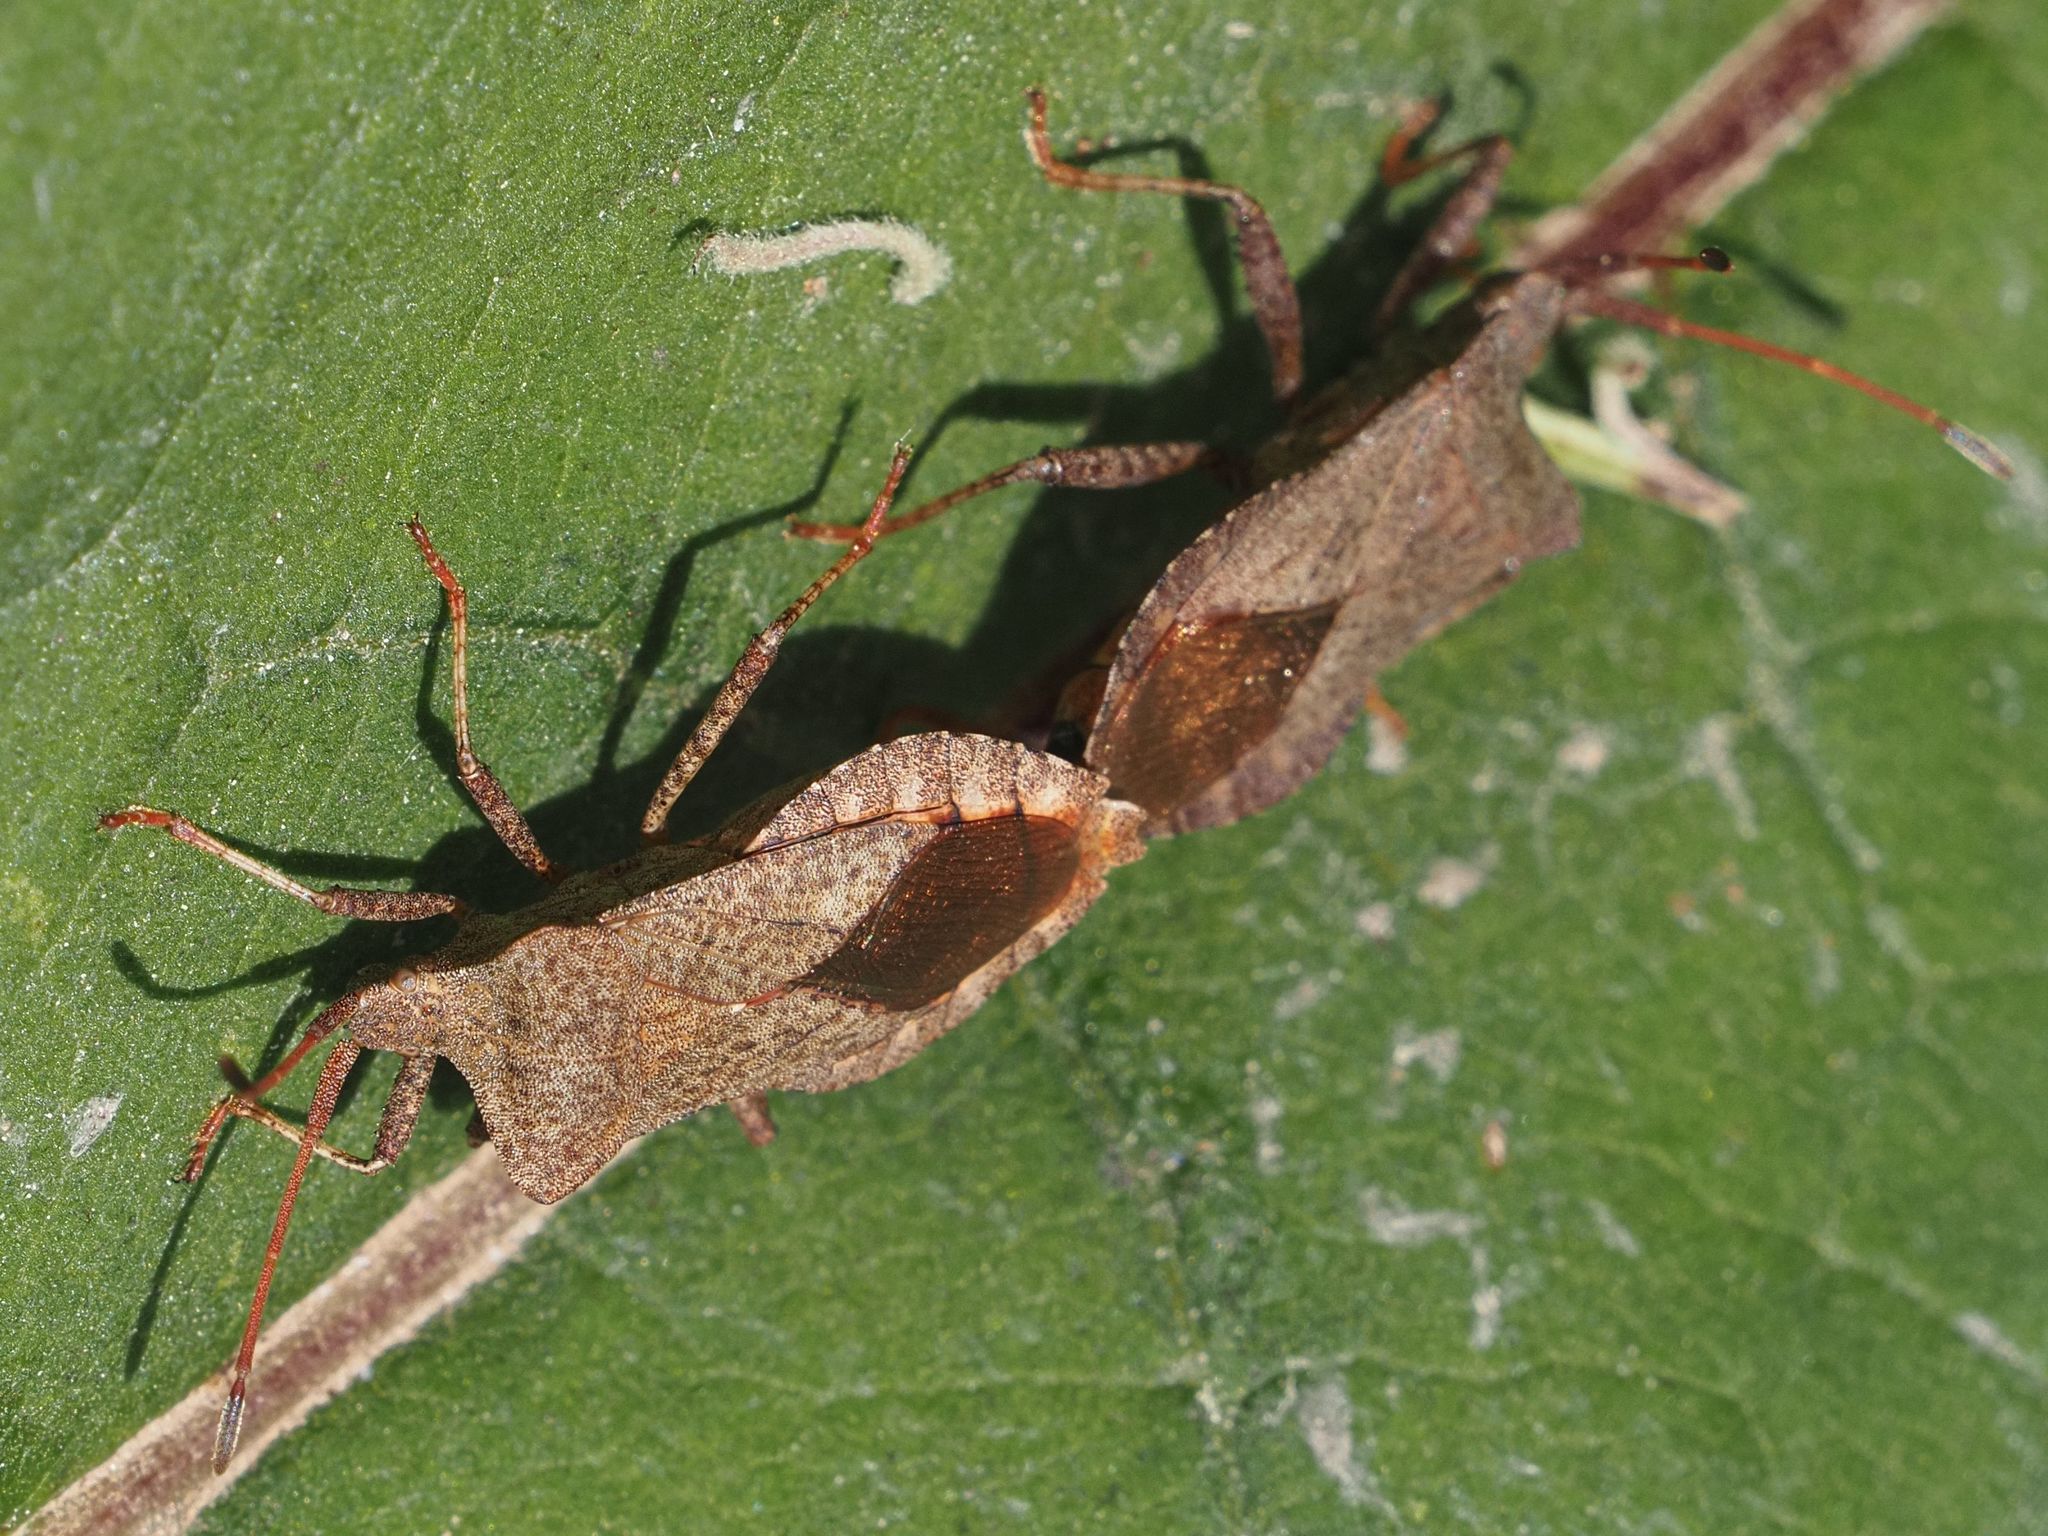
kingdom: Animalia
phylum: Arthropoda
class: Insecta
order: Hemiptera
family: Coreidae
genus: Coreus
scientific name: Coreus marginatus
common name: Dock bug
